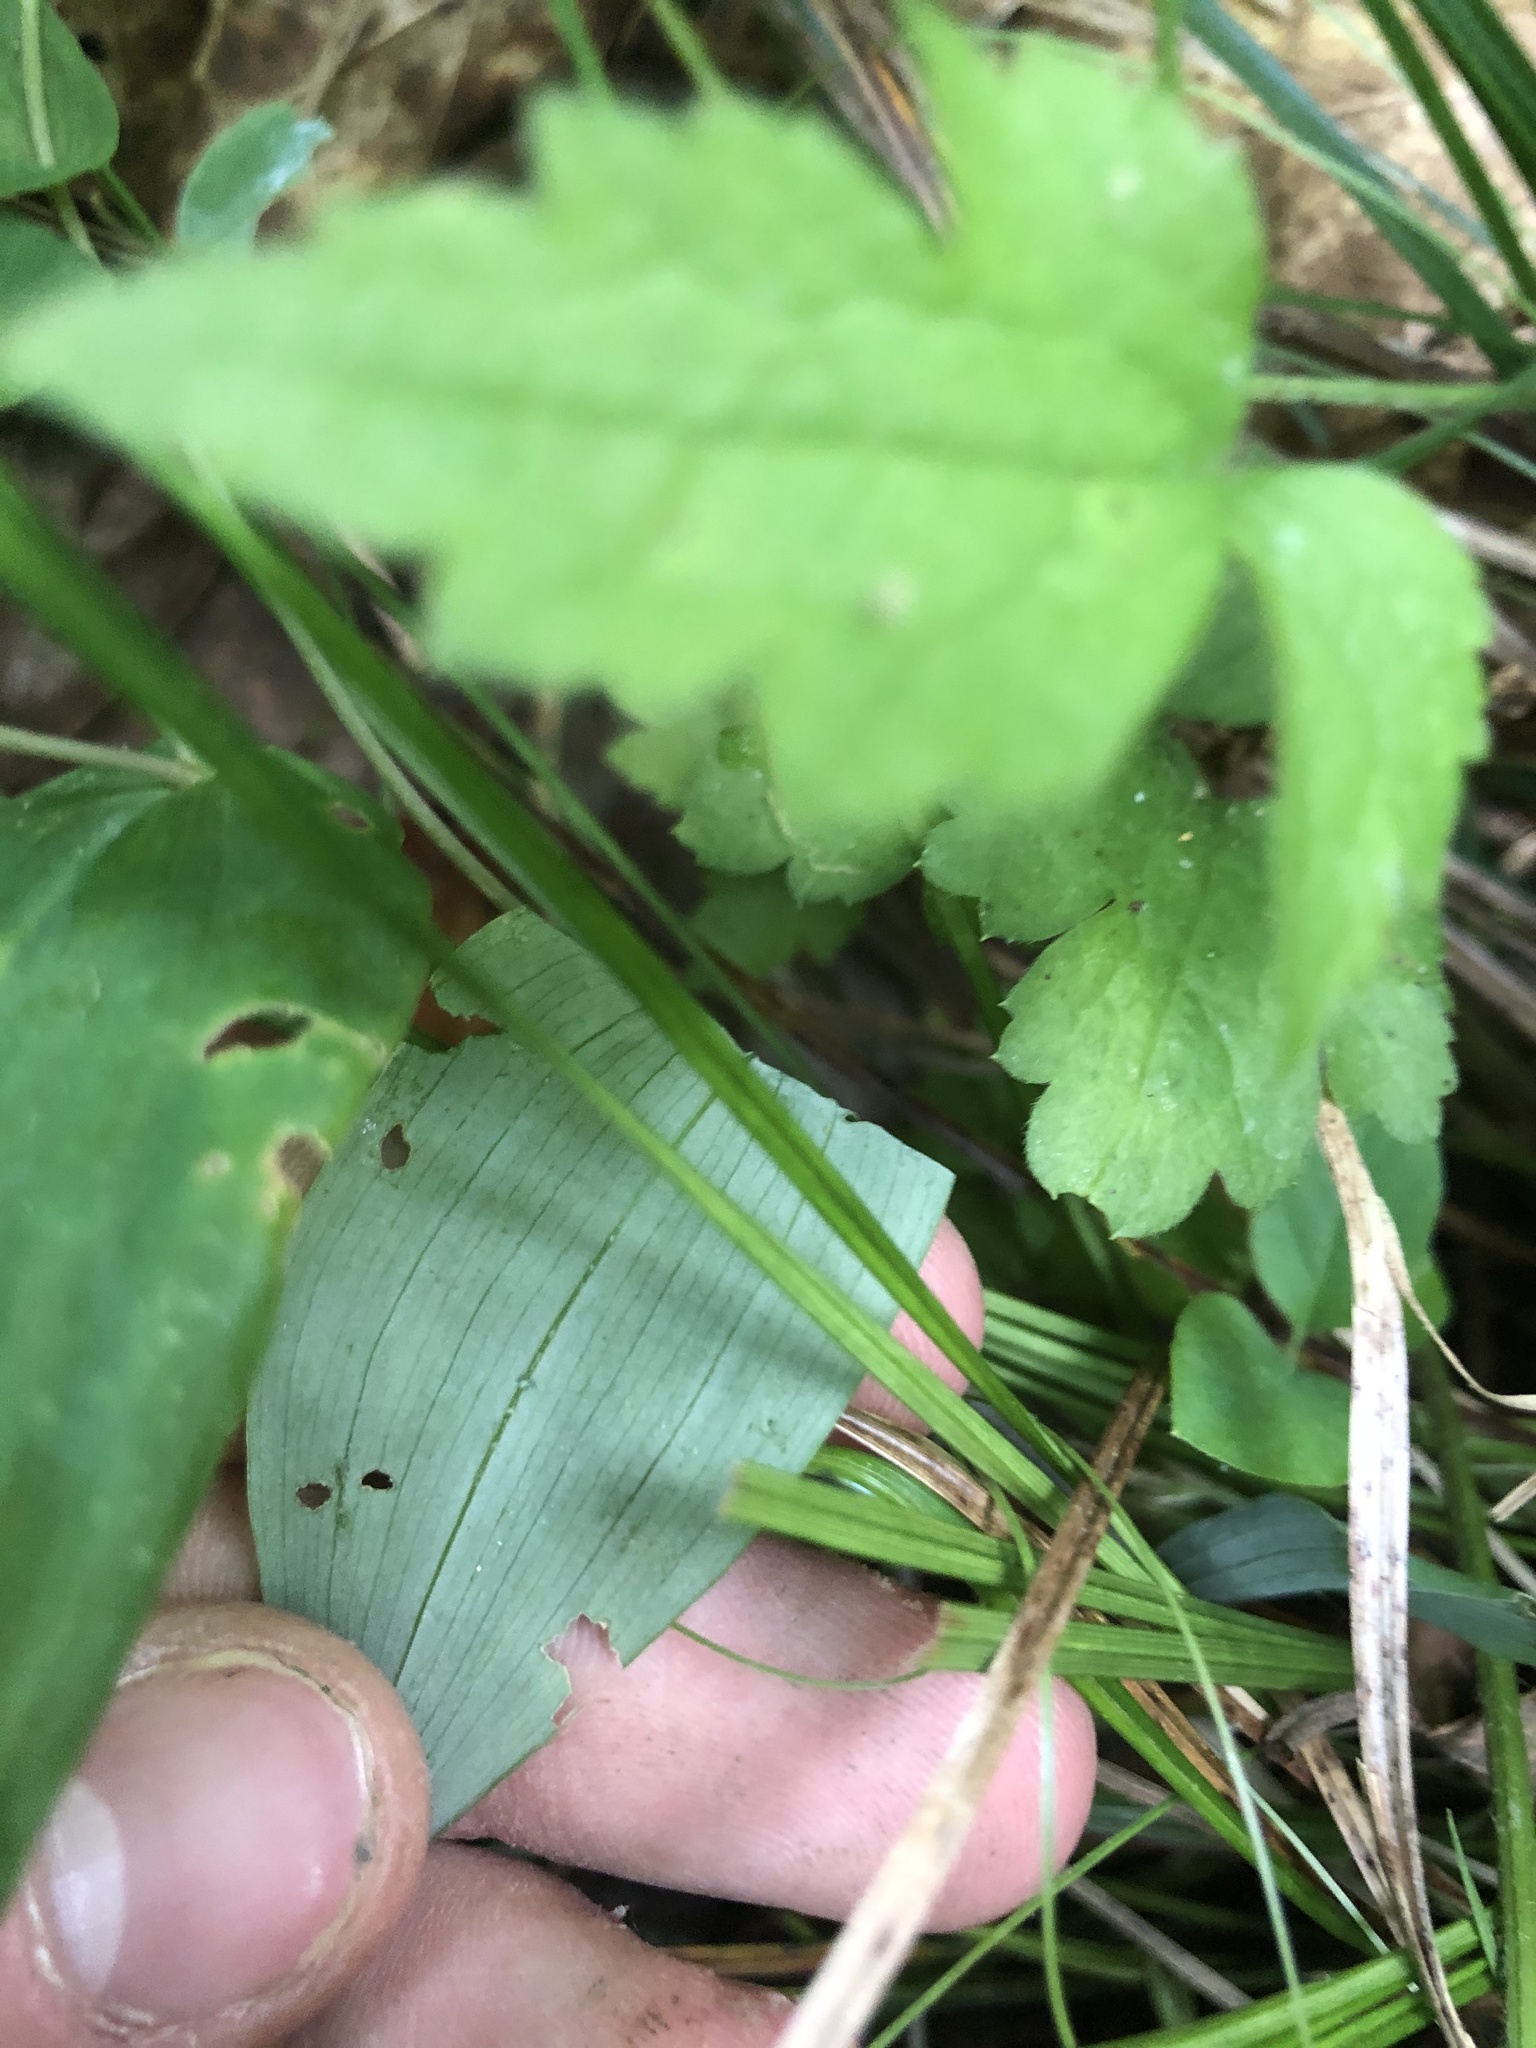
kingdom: Plantae
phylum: Tracheophyta
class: Liliopsida
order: Liliales
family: Colchicaceae
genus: Uvularia
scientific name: Uvularia perfoliata
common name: Perfoliate bellwort
